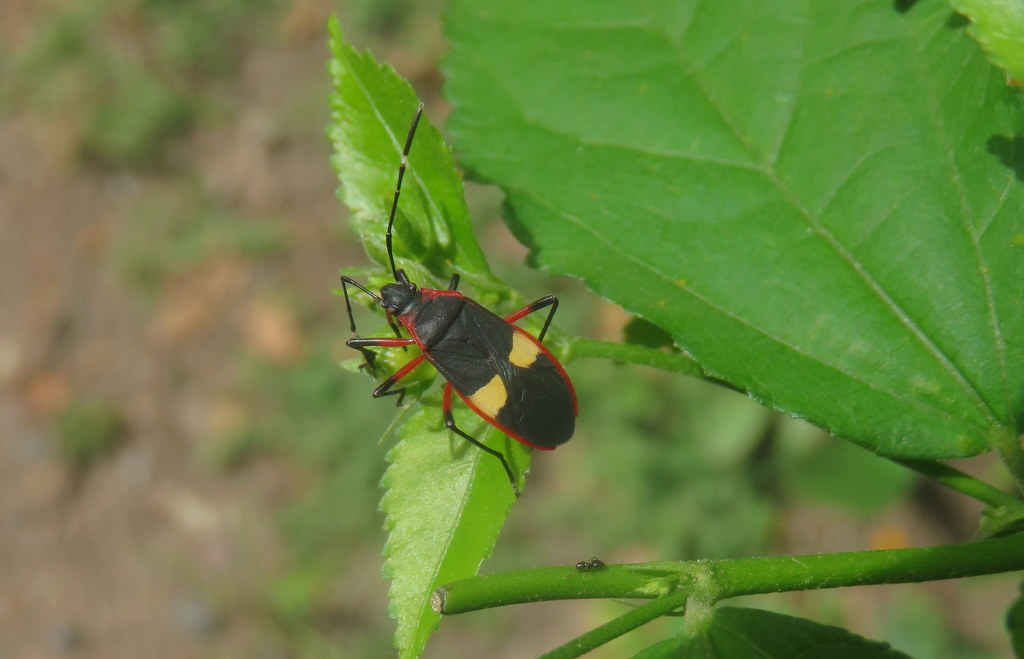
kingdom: Animalia
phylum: Arthropoda
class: Insecta
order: Hemiptera
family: Pyrrhocoridae
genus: Dysdercus
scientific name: Dysdercus albofasciatus
